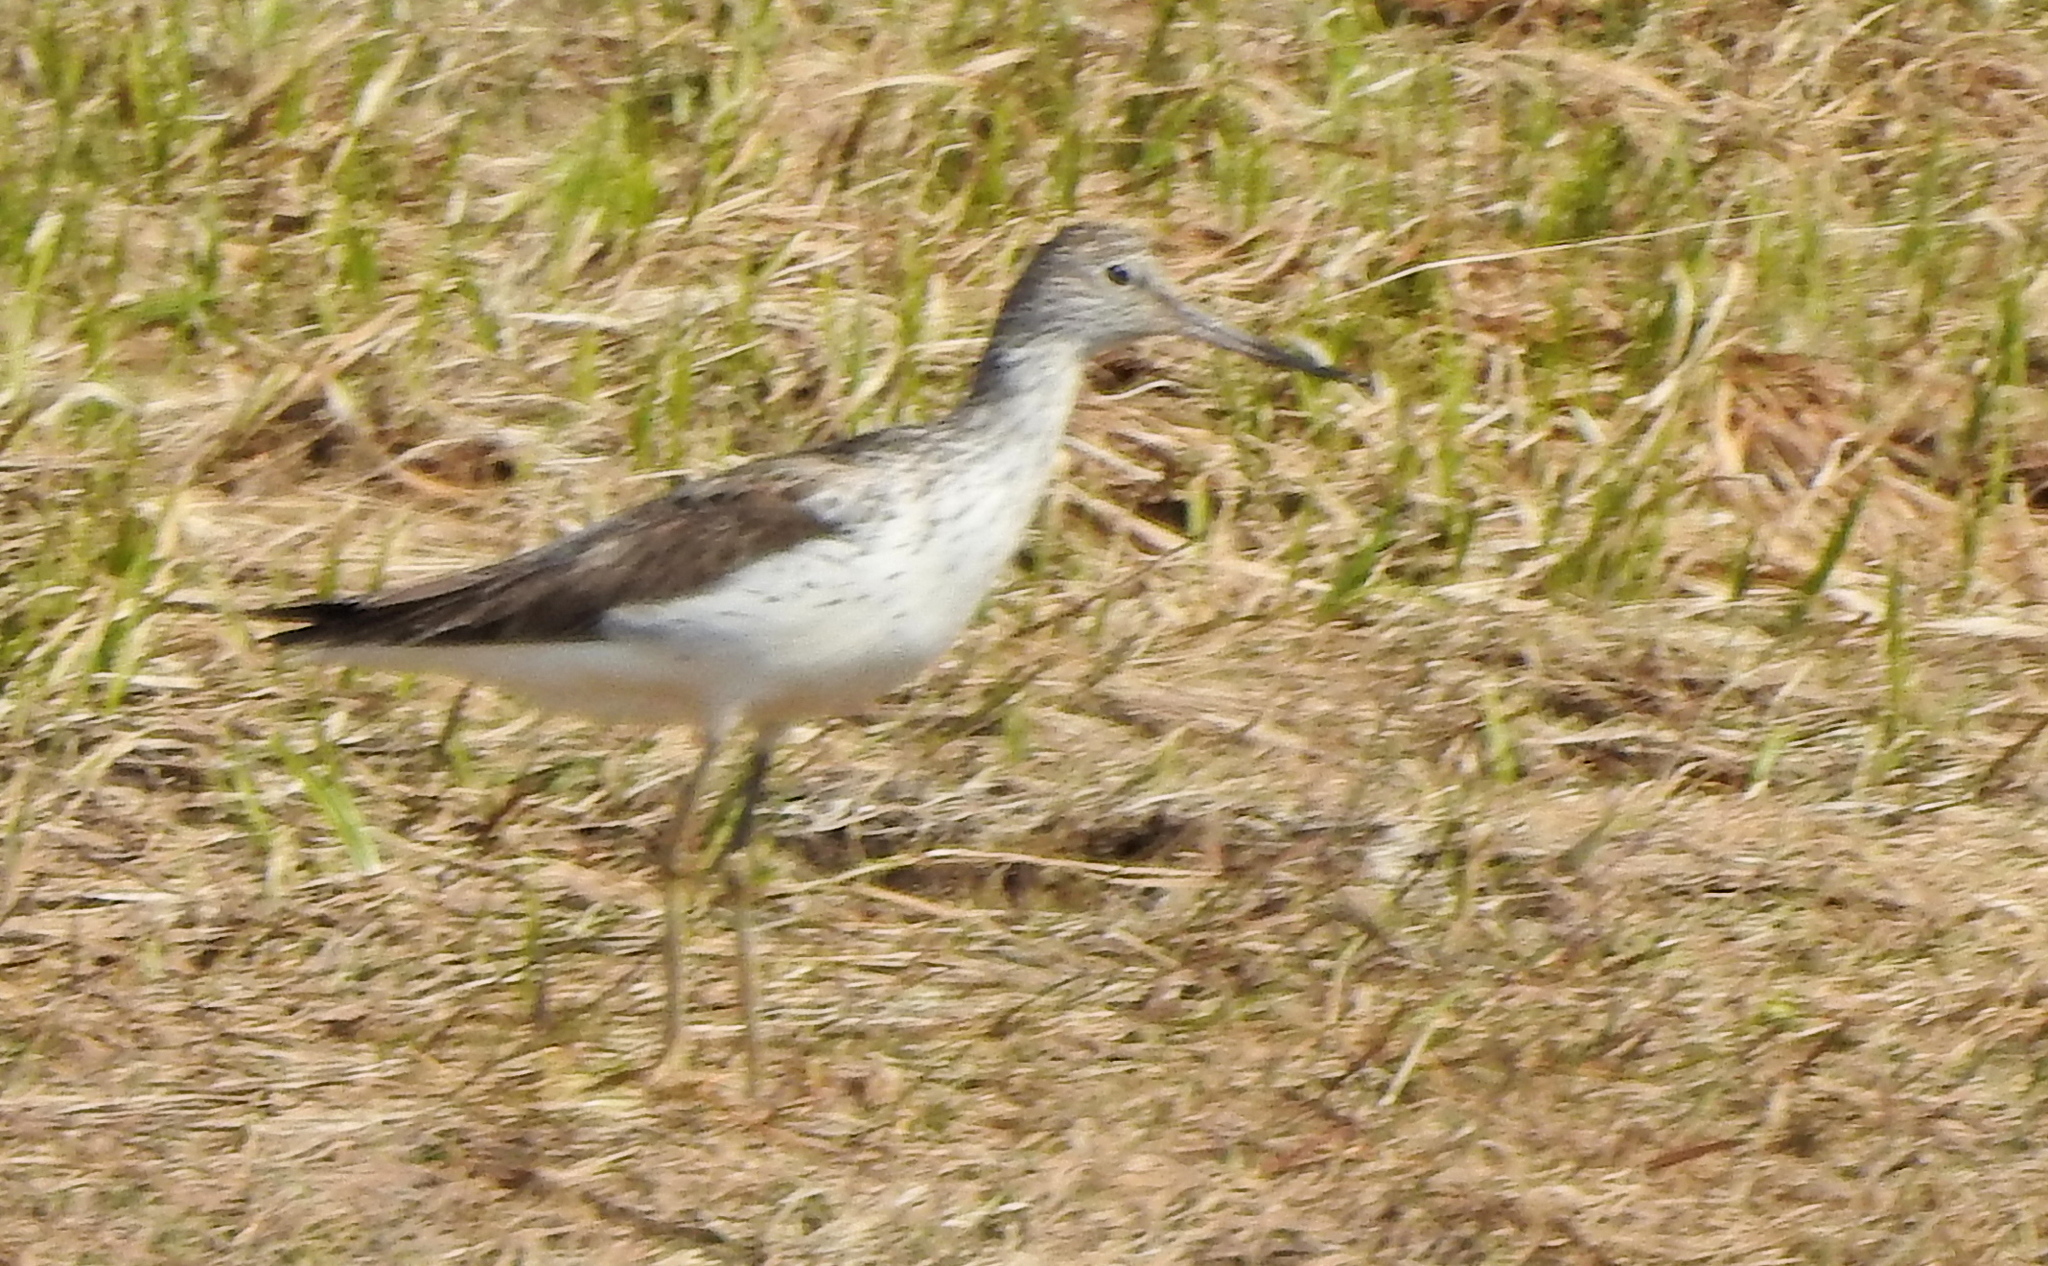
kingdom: Animalia
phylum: Chordata
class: Aves
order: Charadriiformes
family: Scolopacidae
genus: Tringa
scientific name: Tringa nebularia
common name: Common greenshank
